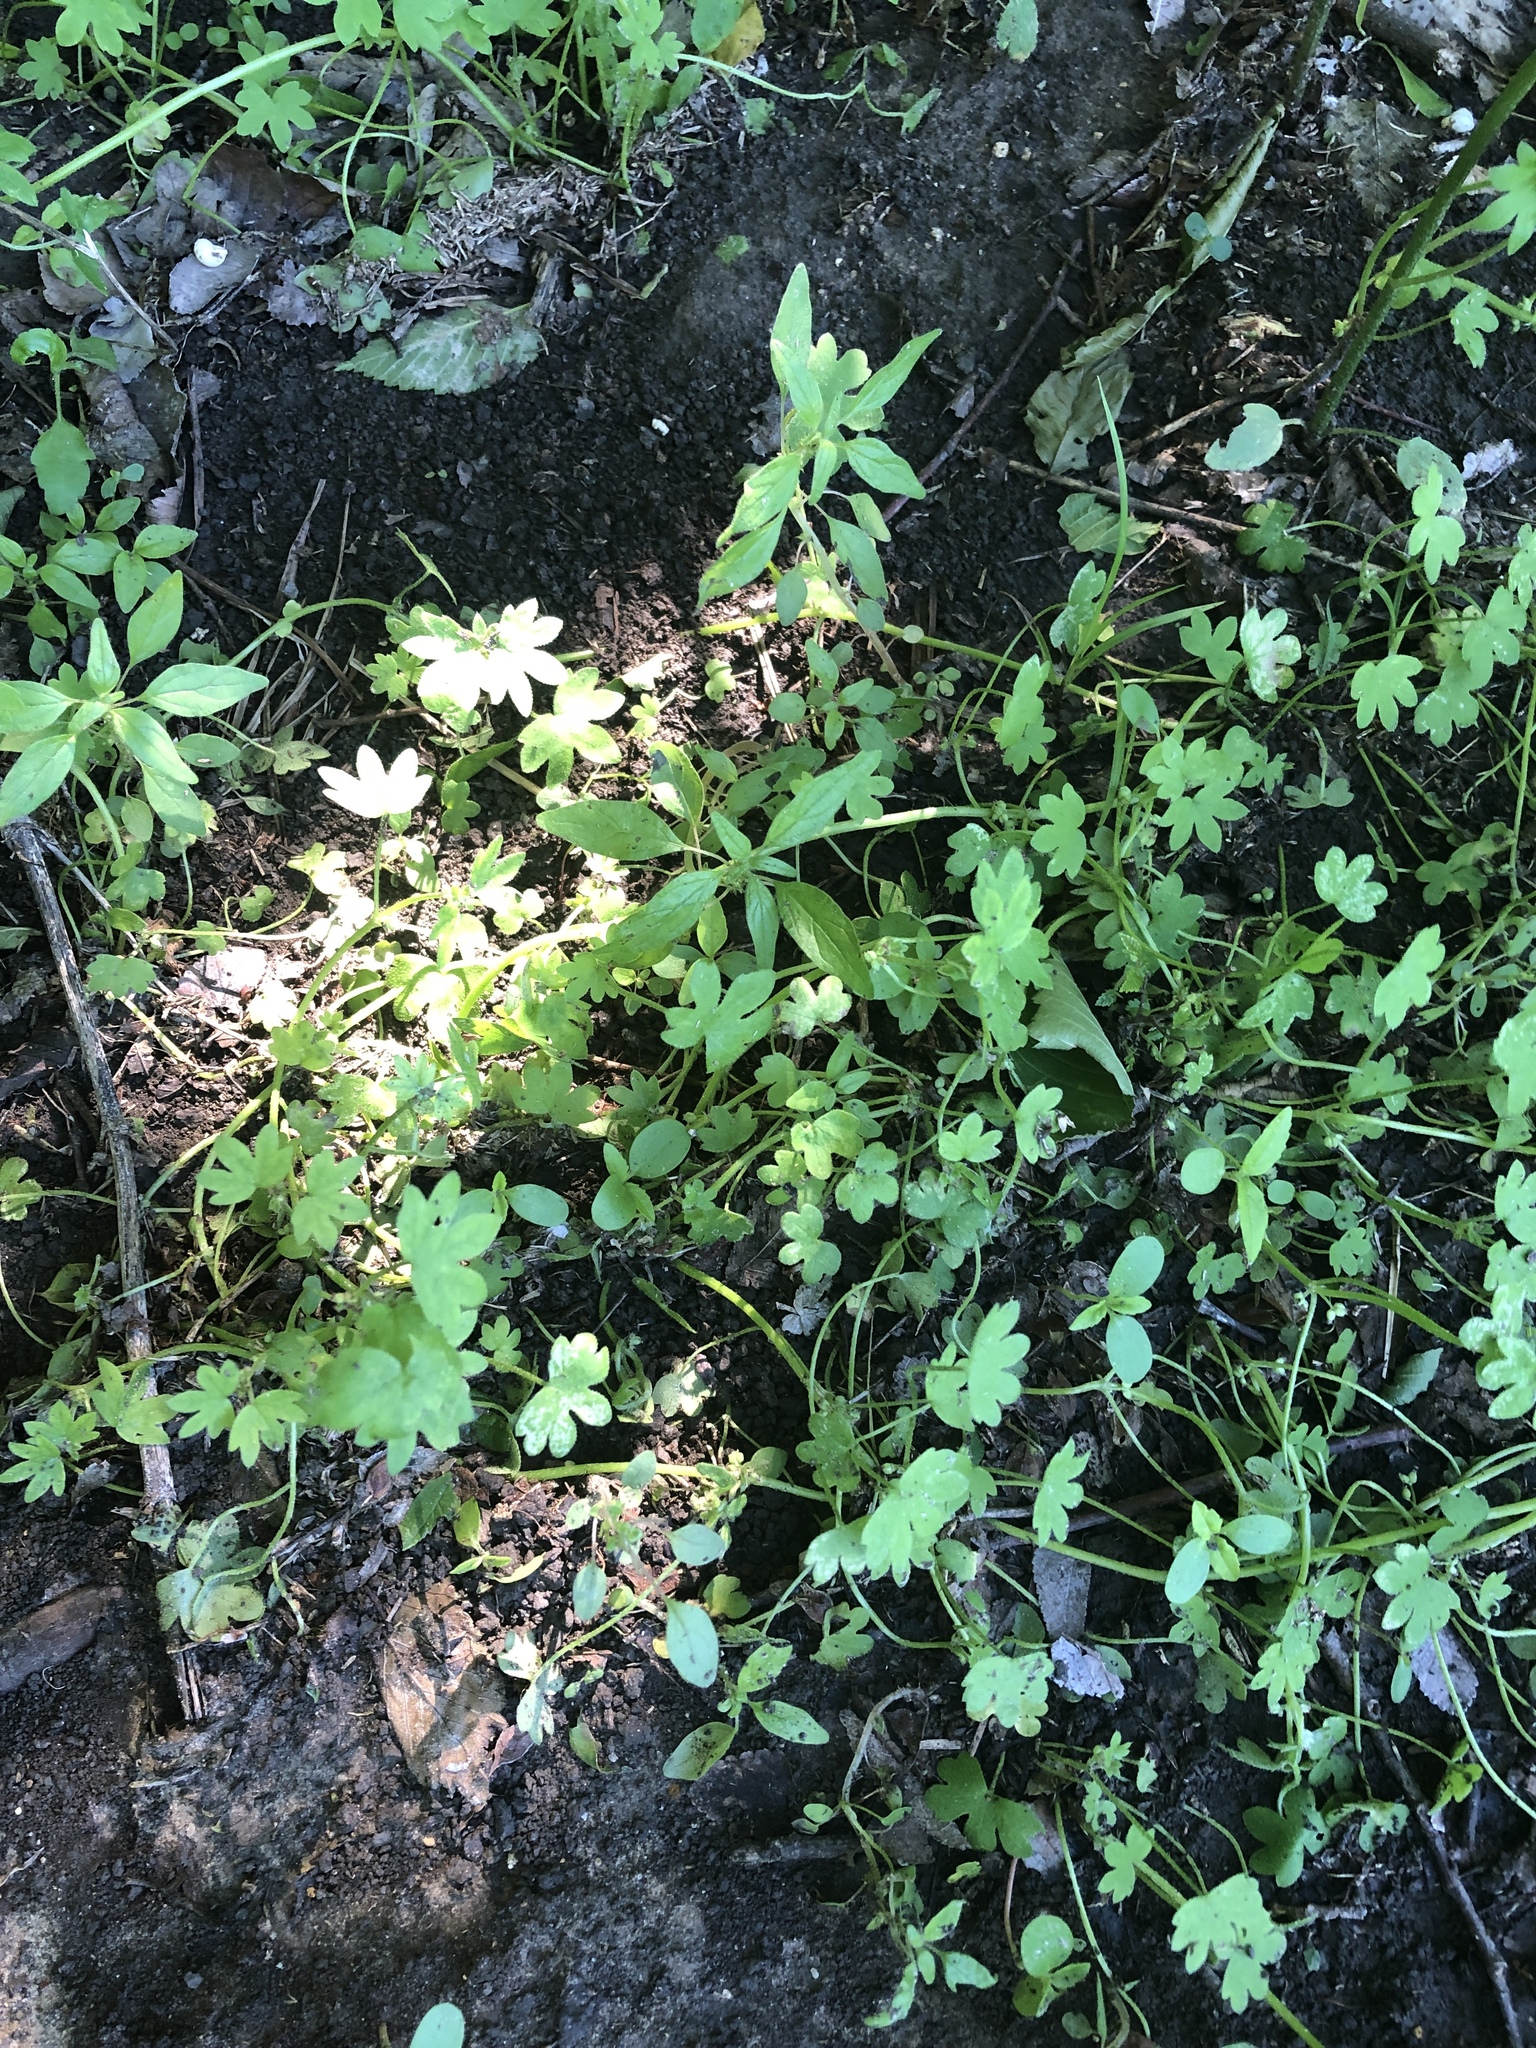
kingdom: Plantae
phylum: Tracheophyta
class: Magnoliopsida
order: Apiales
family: Apiaceae
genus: Bowlesia
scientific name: Bowlesia incana
